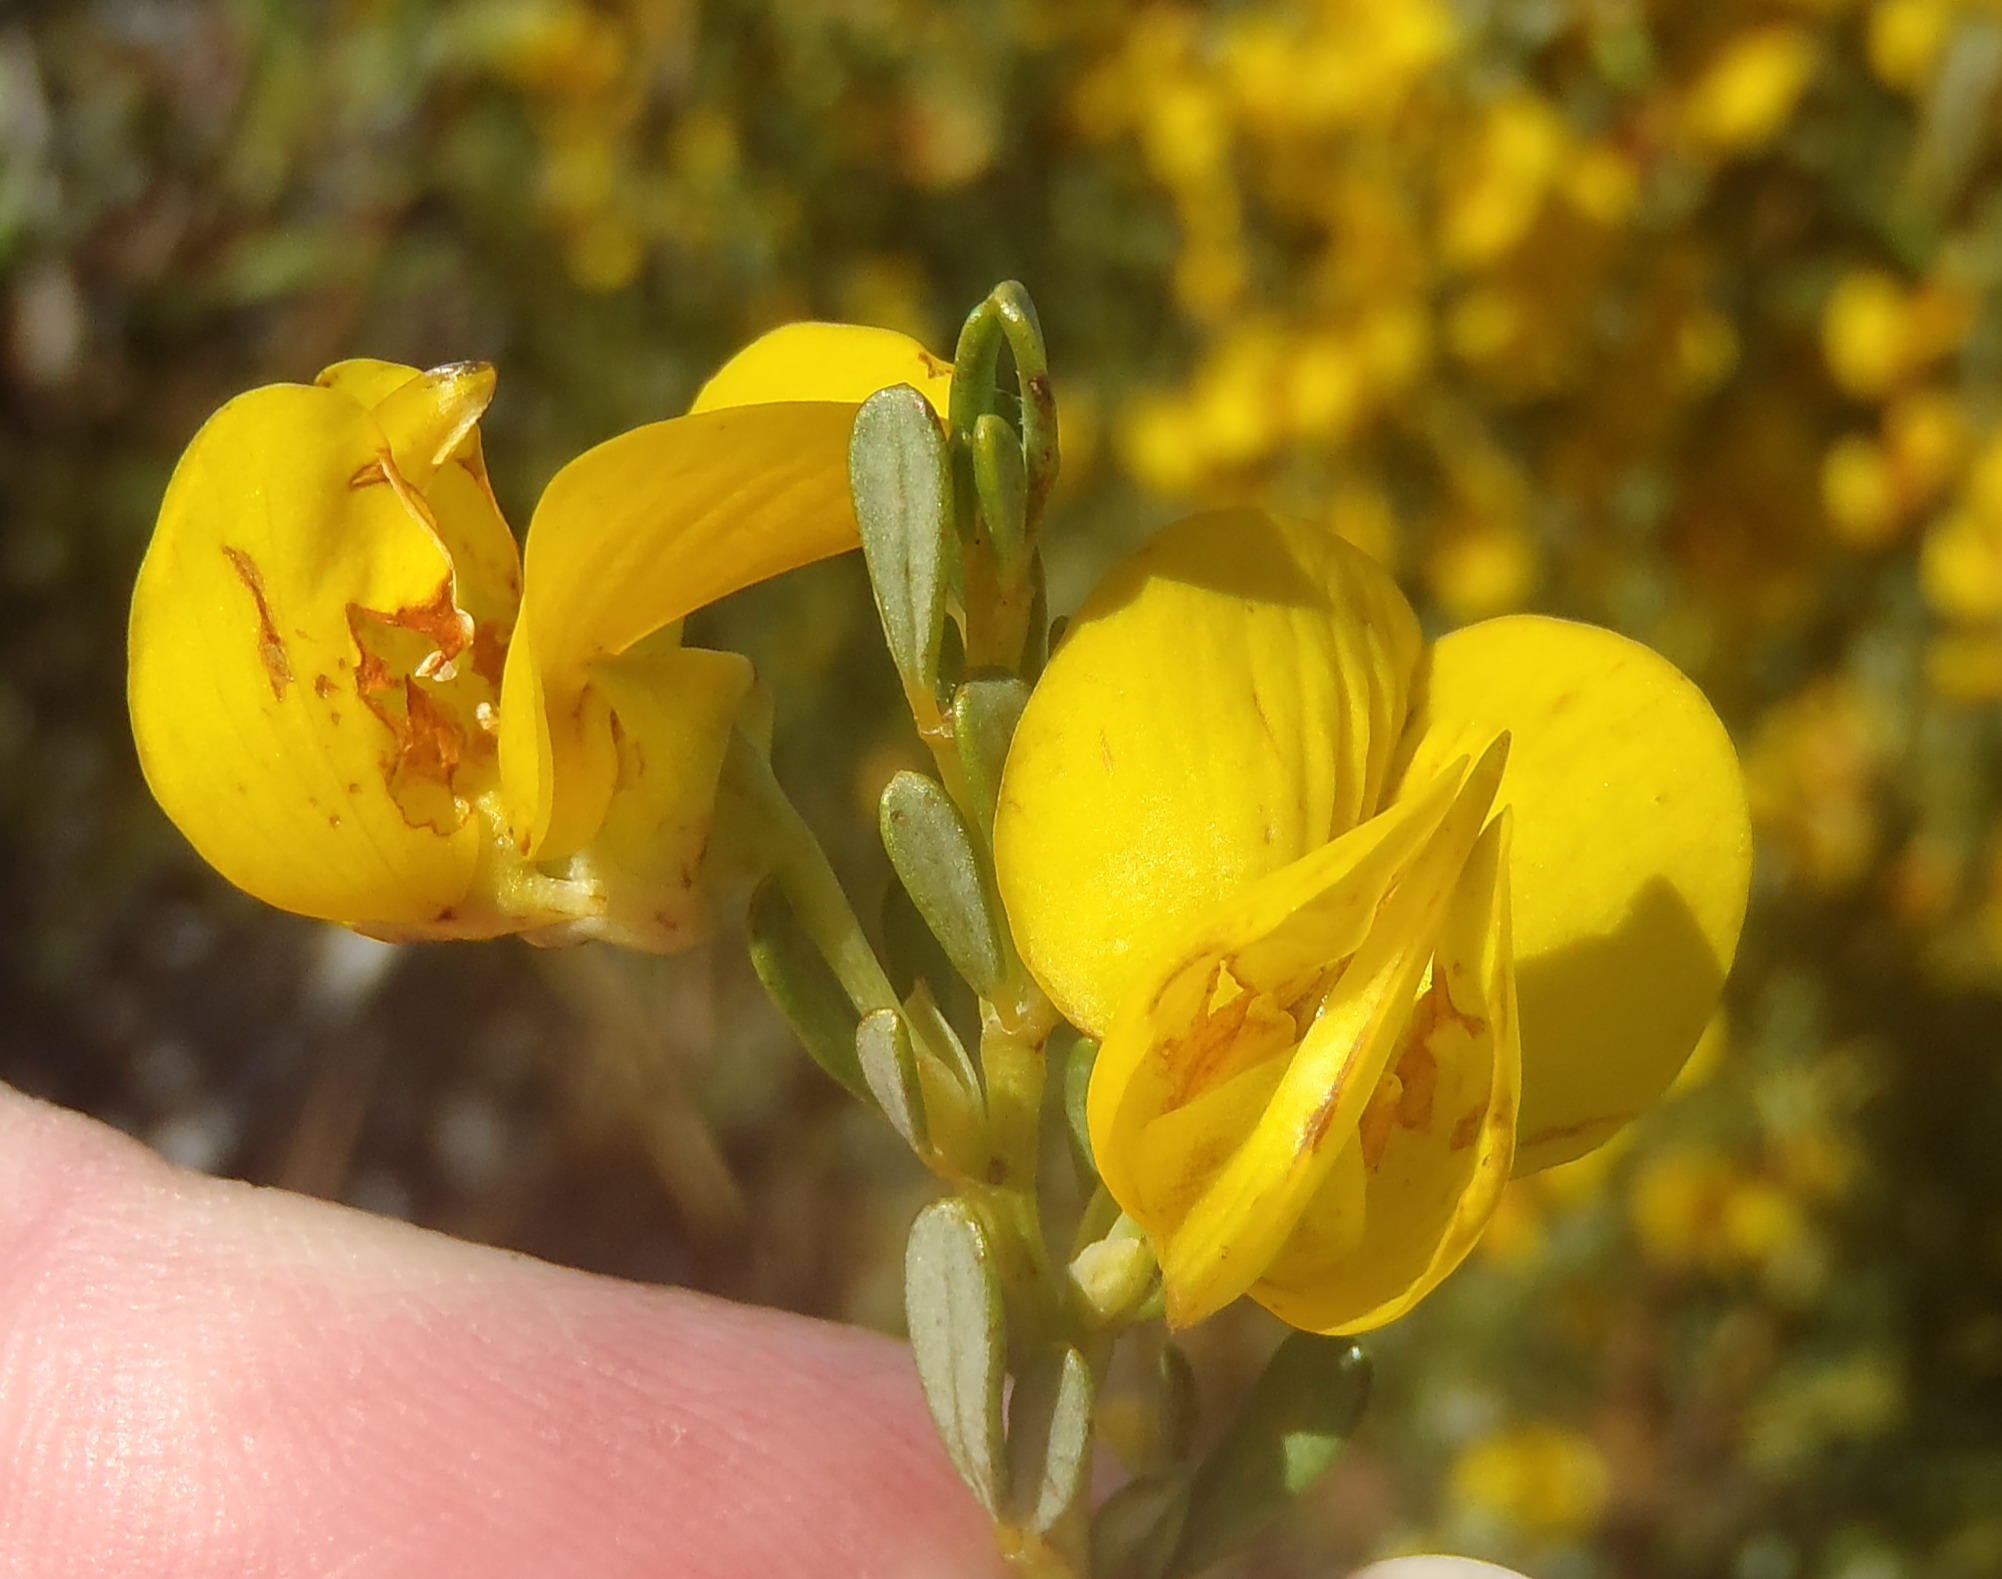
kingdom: Plantae
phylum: Tracheophyta
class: Magnoliopsida
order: Fabales
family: Fabaceae
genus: Cyclopia
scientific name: Cyclopia subternata
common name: Honeybush tea
